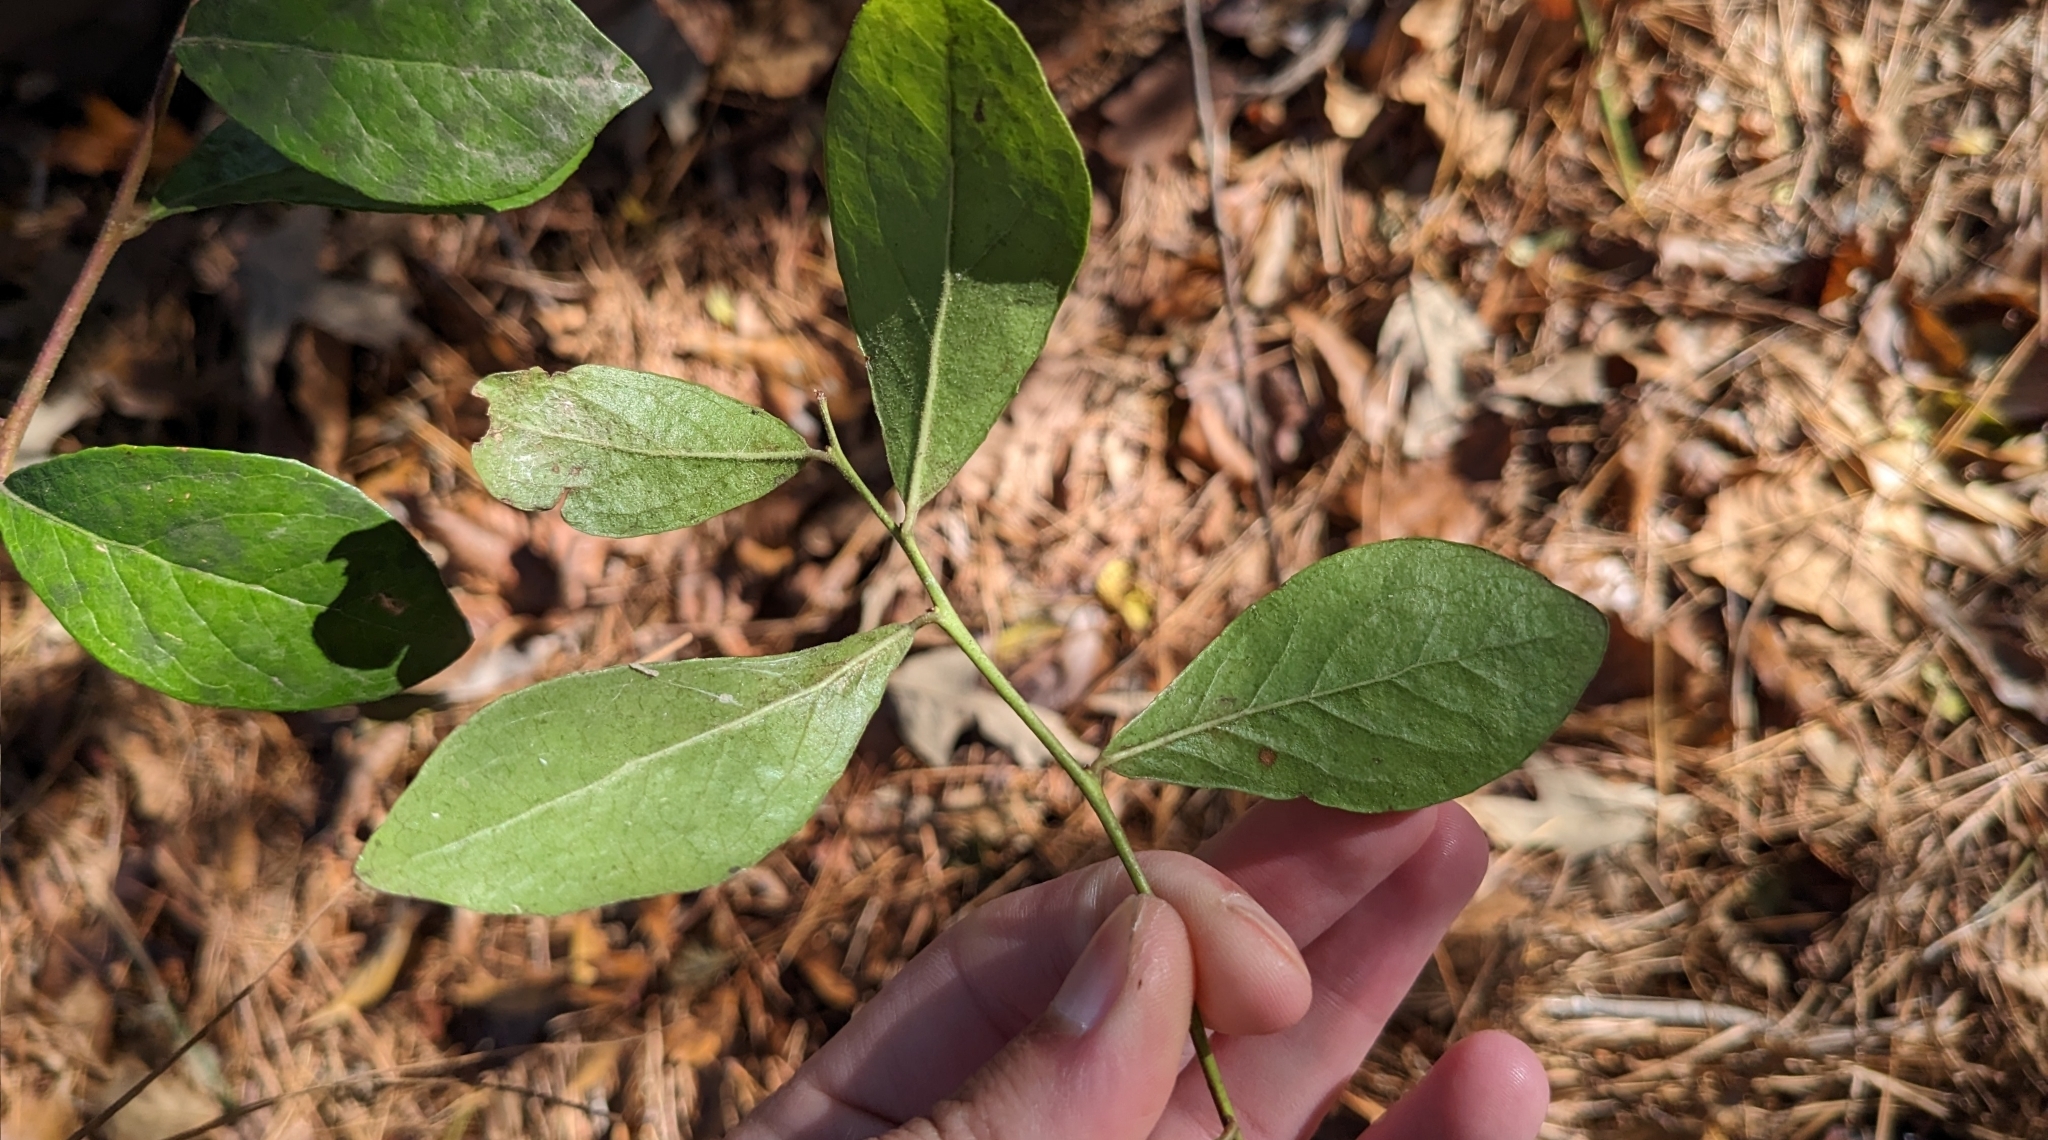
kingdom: Plantae
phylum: Tracheophyta
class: Magnoliopsida
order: Ericales
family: Ericaceae
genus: Vaccinium
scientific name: Vaccinium arboreum
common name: Farkleberry
